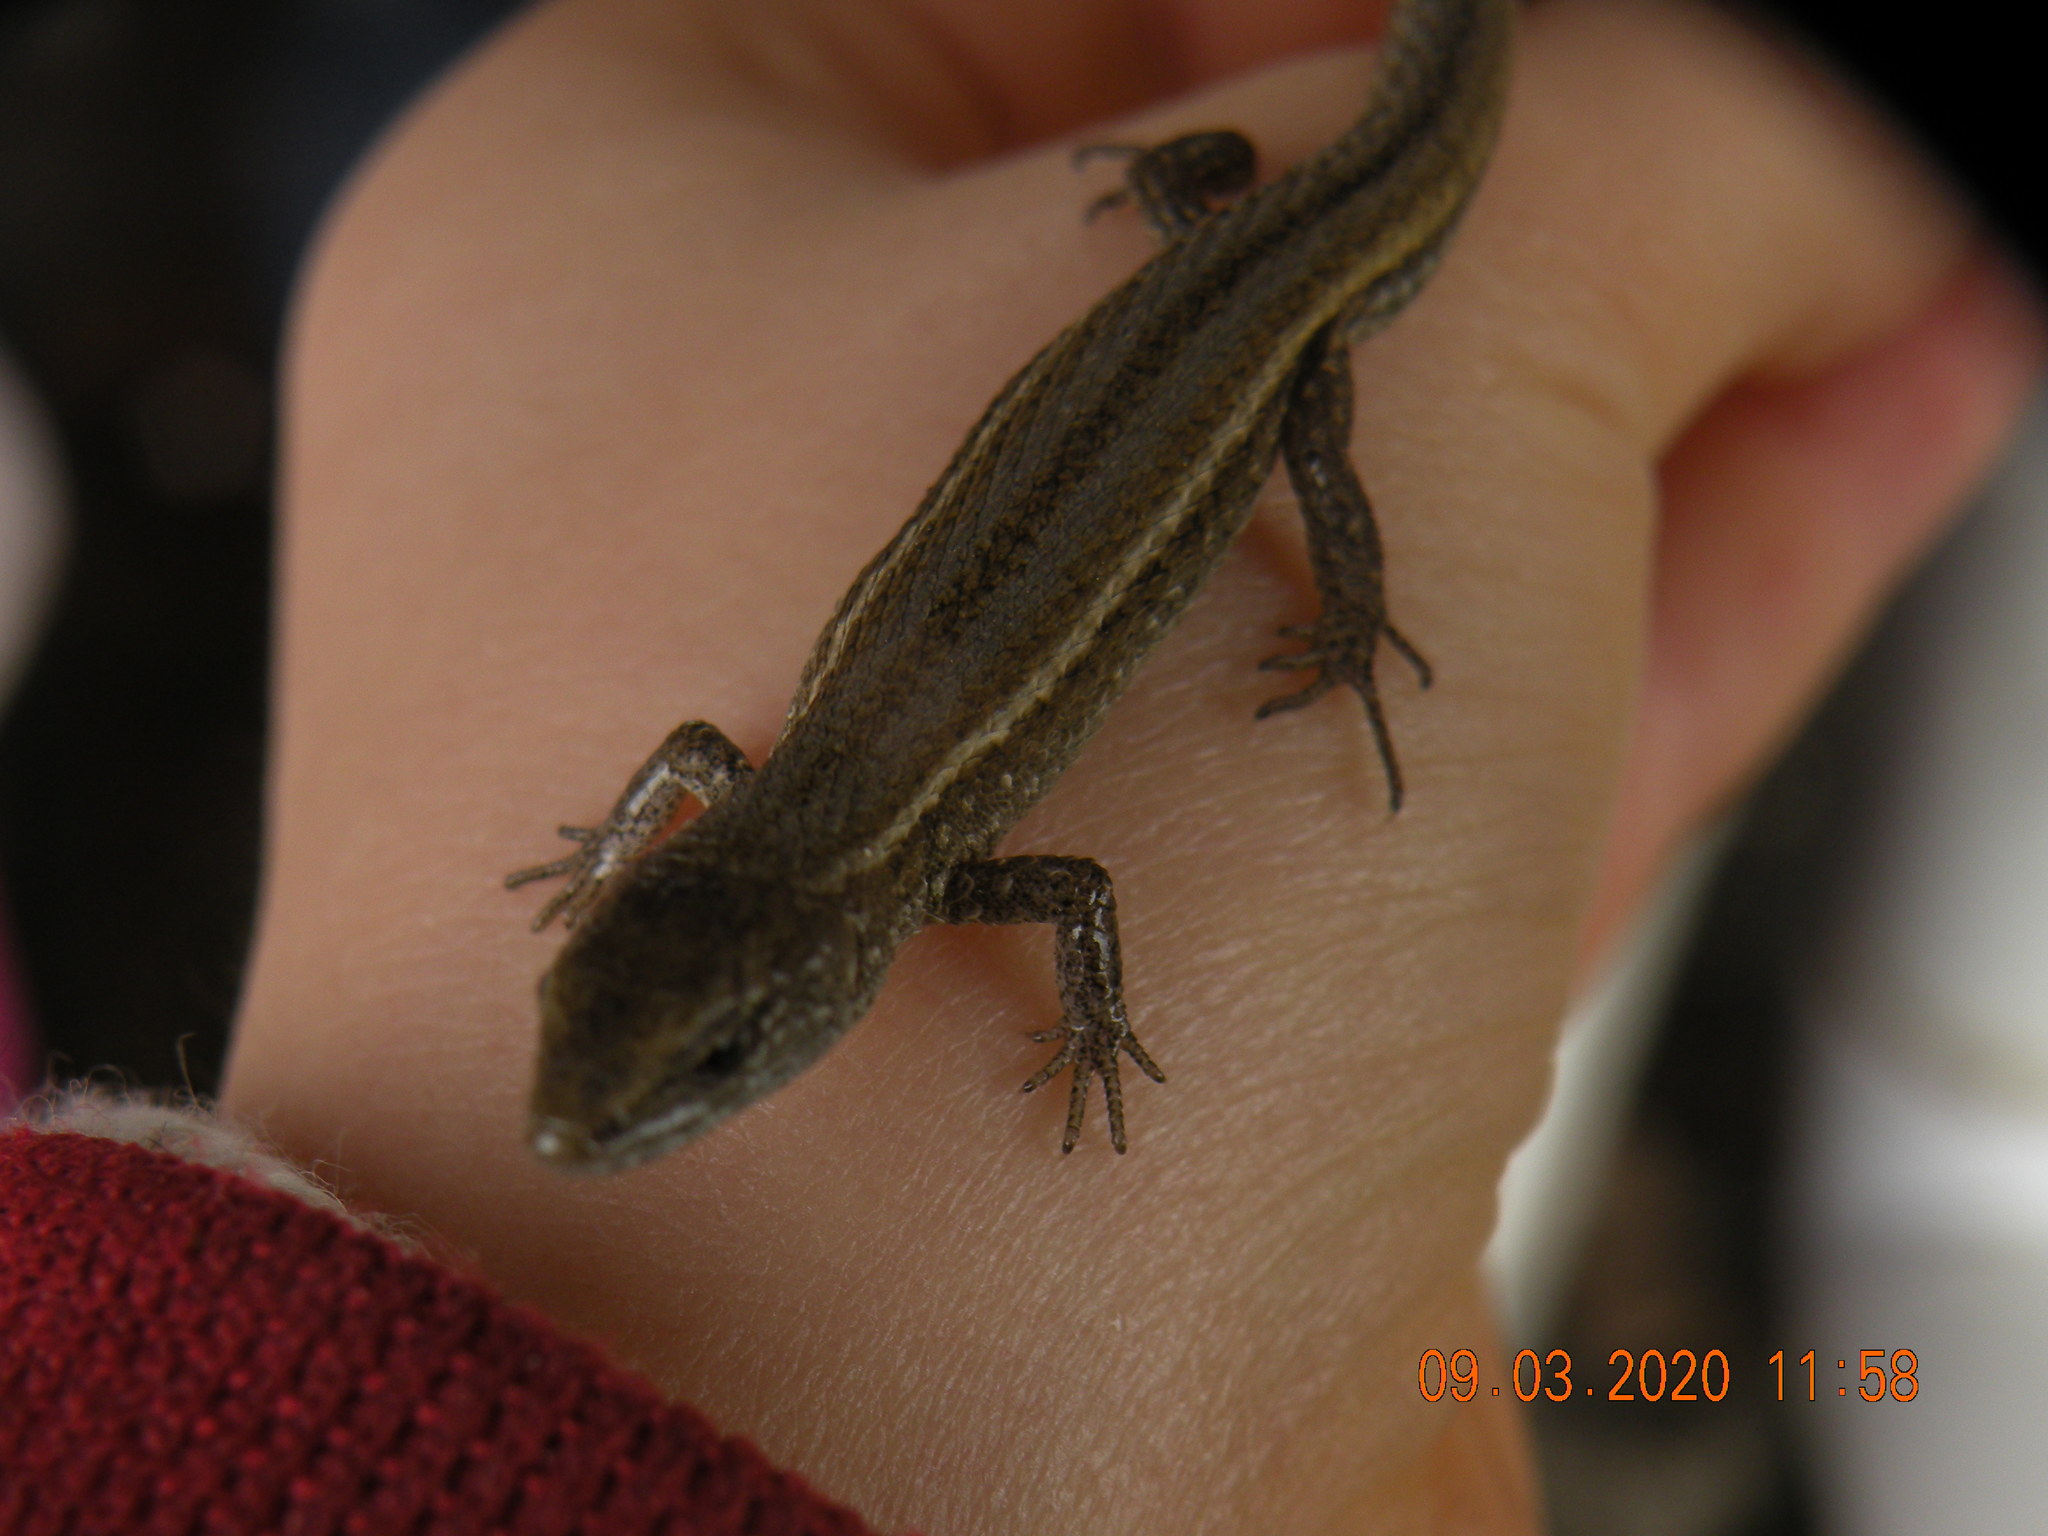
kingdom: Animalia
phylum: Chordata
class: Squamata
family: Gymnophthalmidae
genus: Cercosaura
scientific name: Cercosaura schreibersii
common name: Schreibers' many-fingered teiid
